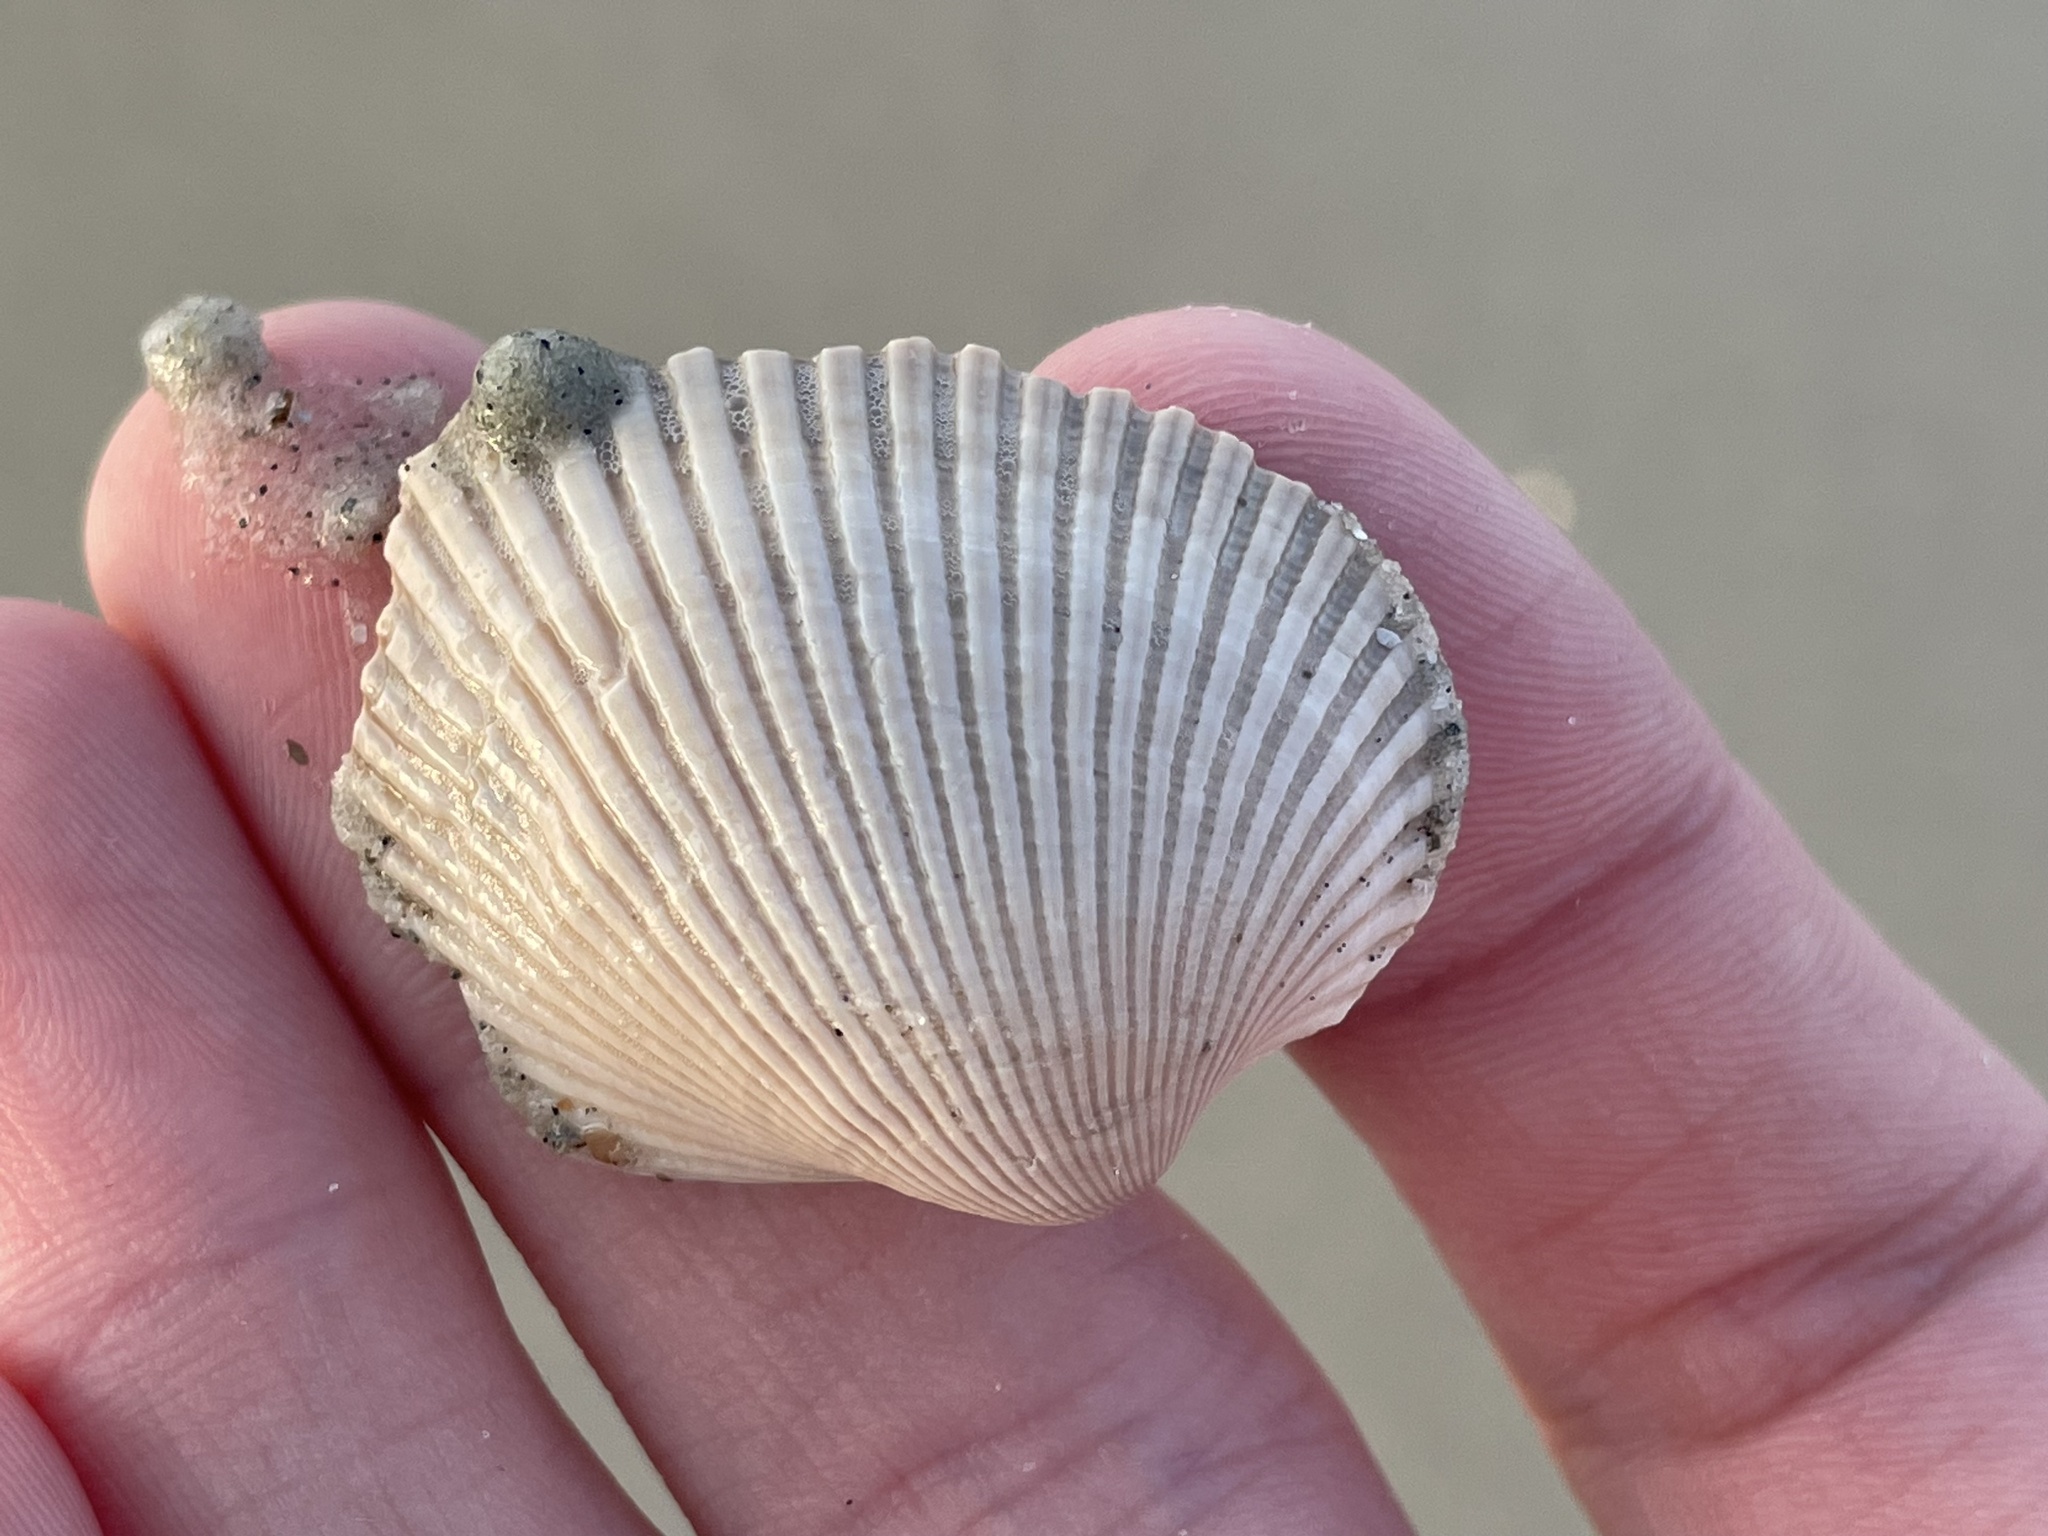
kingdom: Animalia
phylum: Mollusca
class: Bivalvia
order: Arcida
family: Arcidae
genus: Lunarca
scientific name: Lunarca ovalis
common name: Blood ark
